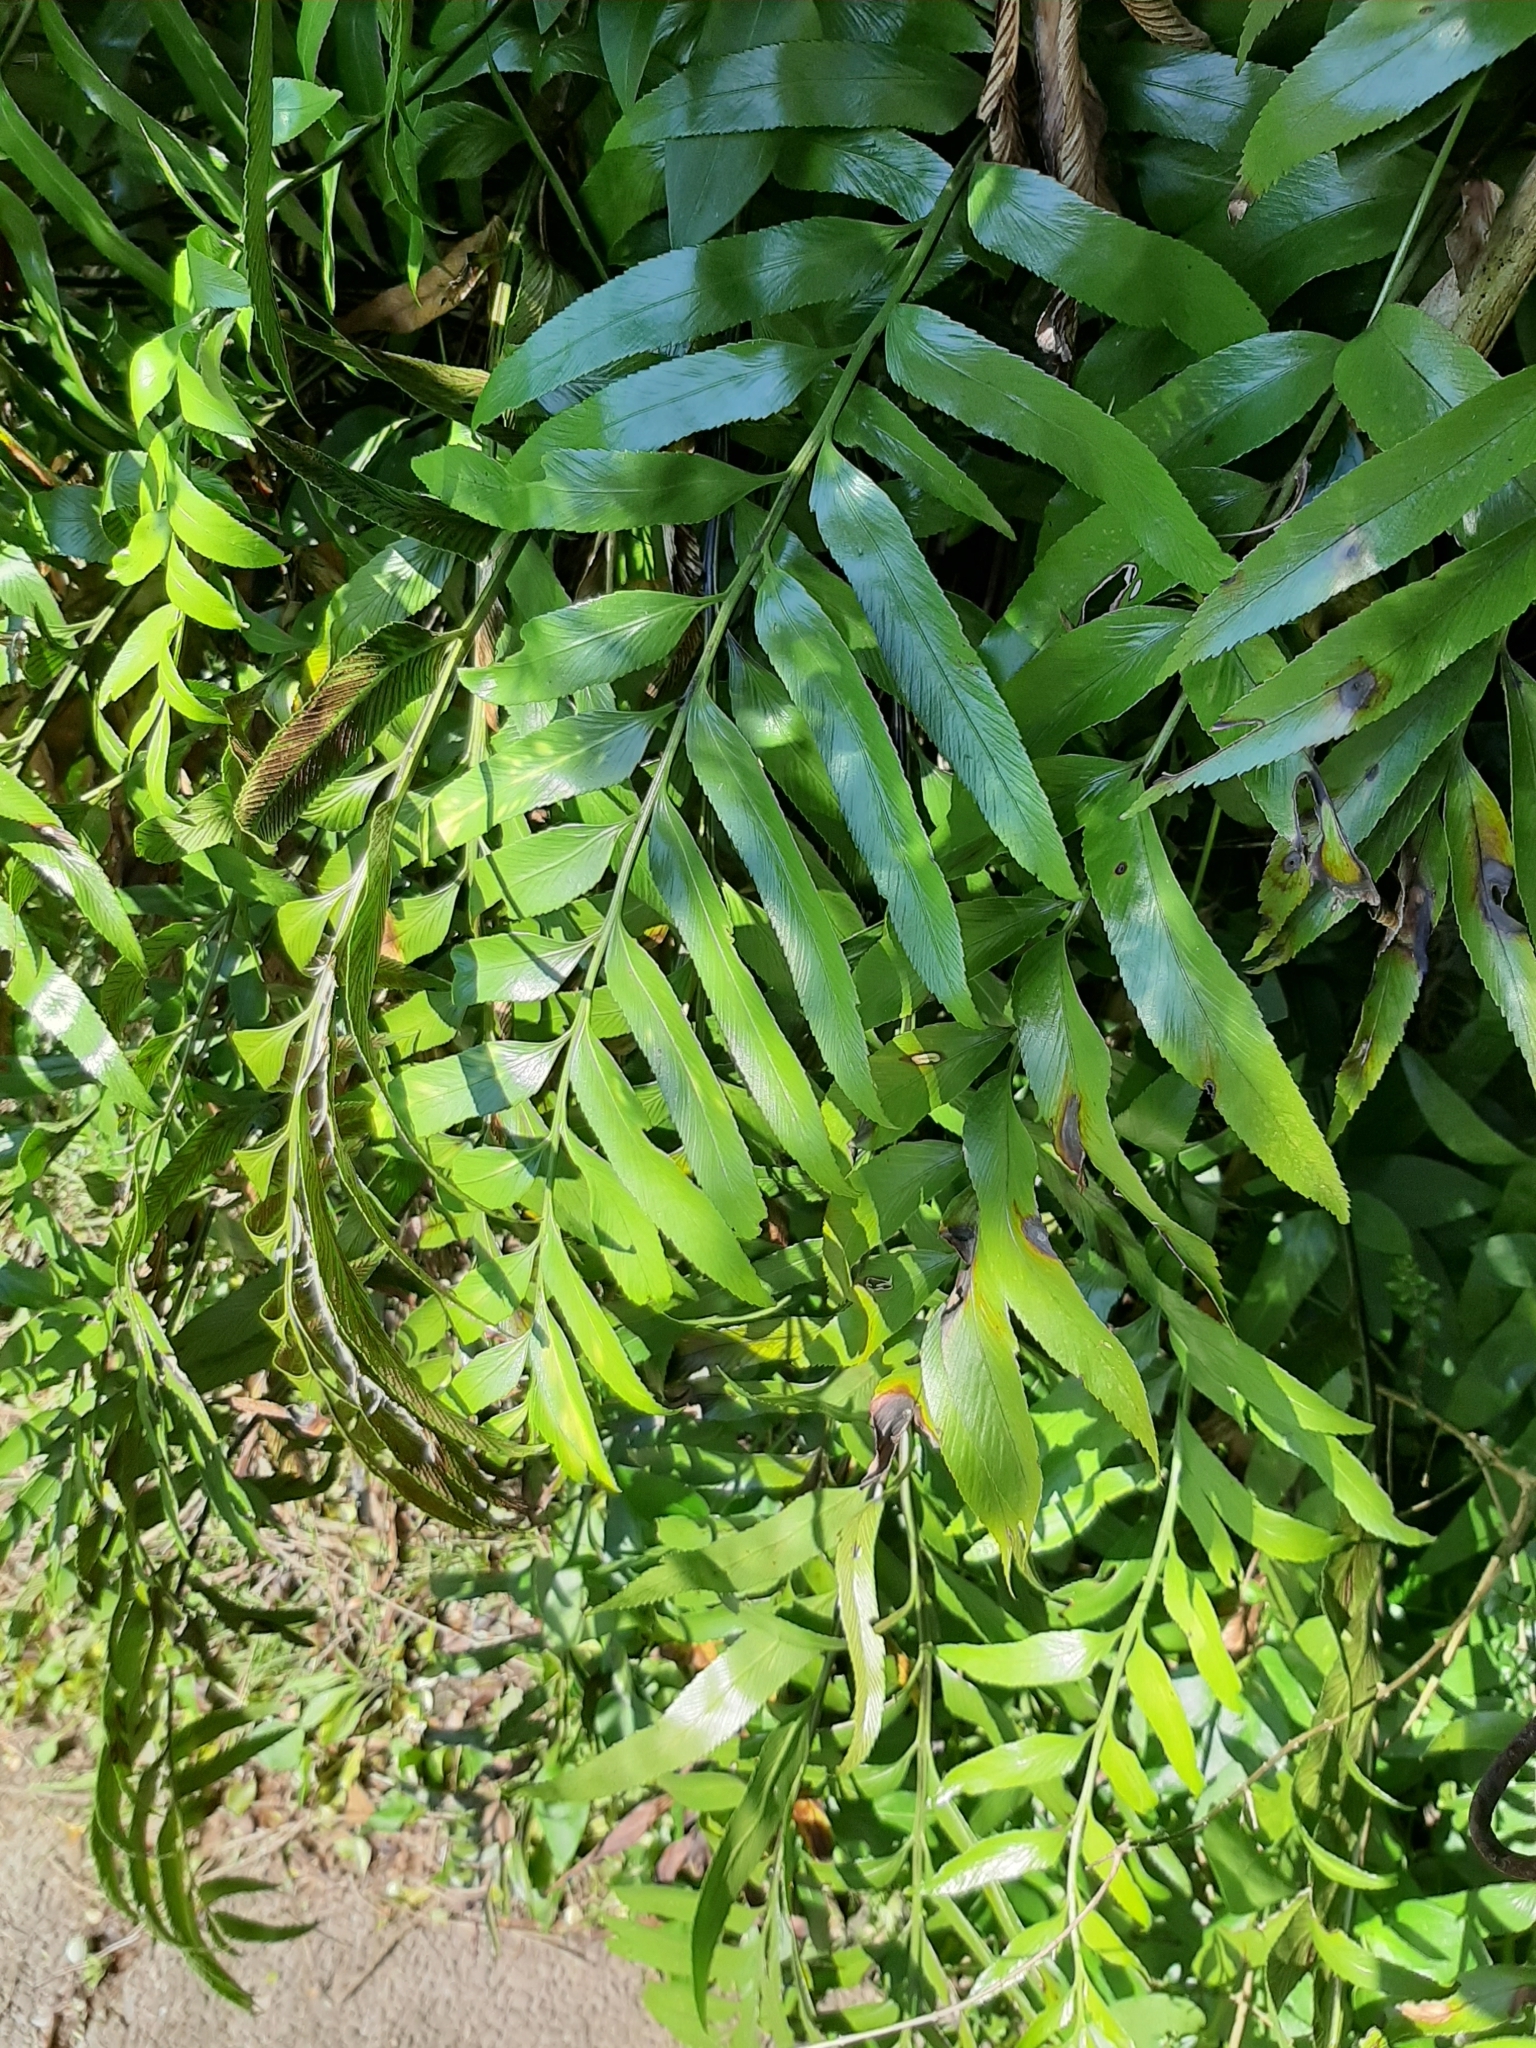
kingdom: Plantae
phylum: Tracheophyta
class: Polypodiopsida
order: Polypodiales
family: Aspleniaceae
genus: Asplenium
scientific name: Asplenium oblongifolium
